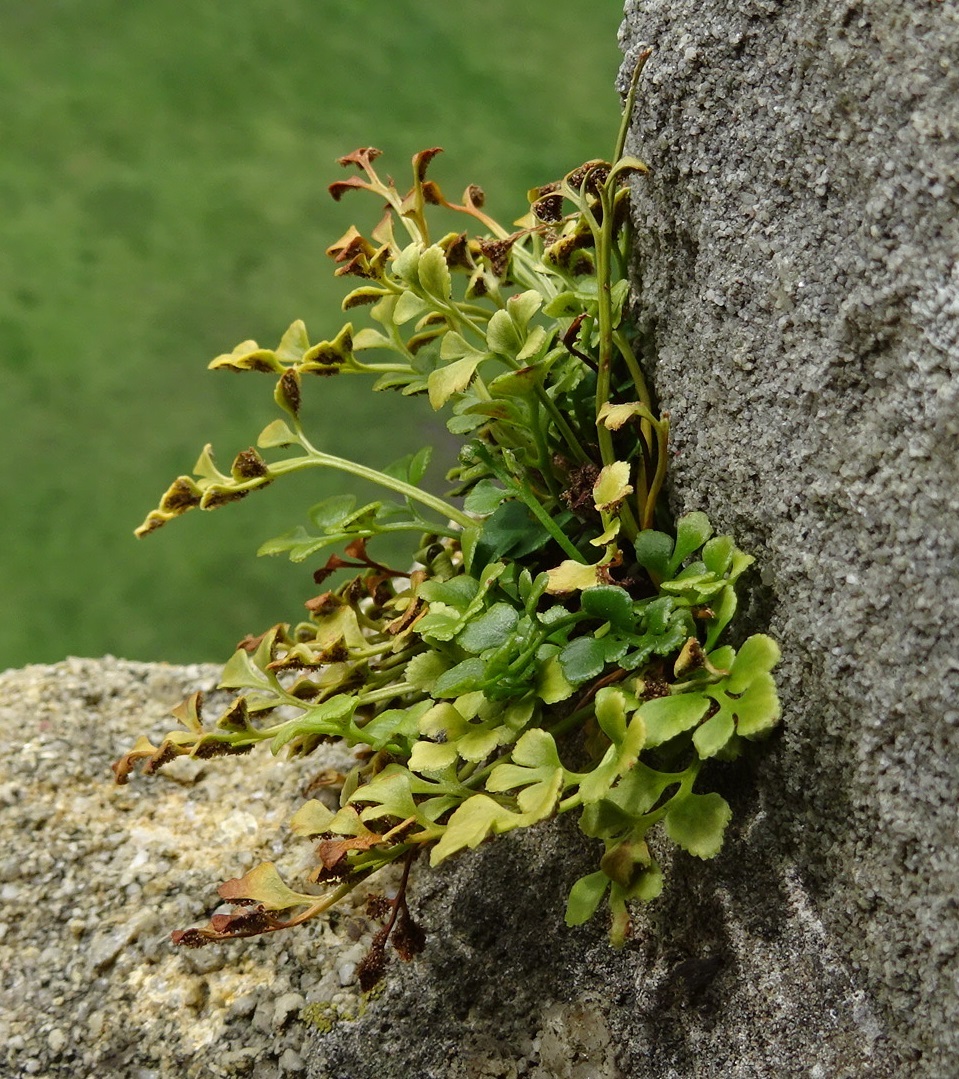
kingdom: Plantae
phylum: Tracheophyta
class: Polypodiopsida
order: Polypodiales
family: Aspleniaceae
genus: Asplenium
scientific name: Asplenium ruta-muraria
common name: Wall-rue
